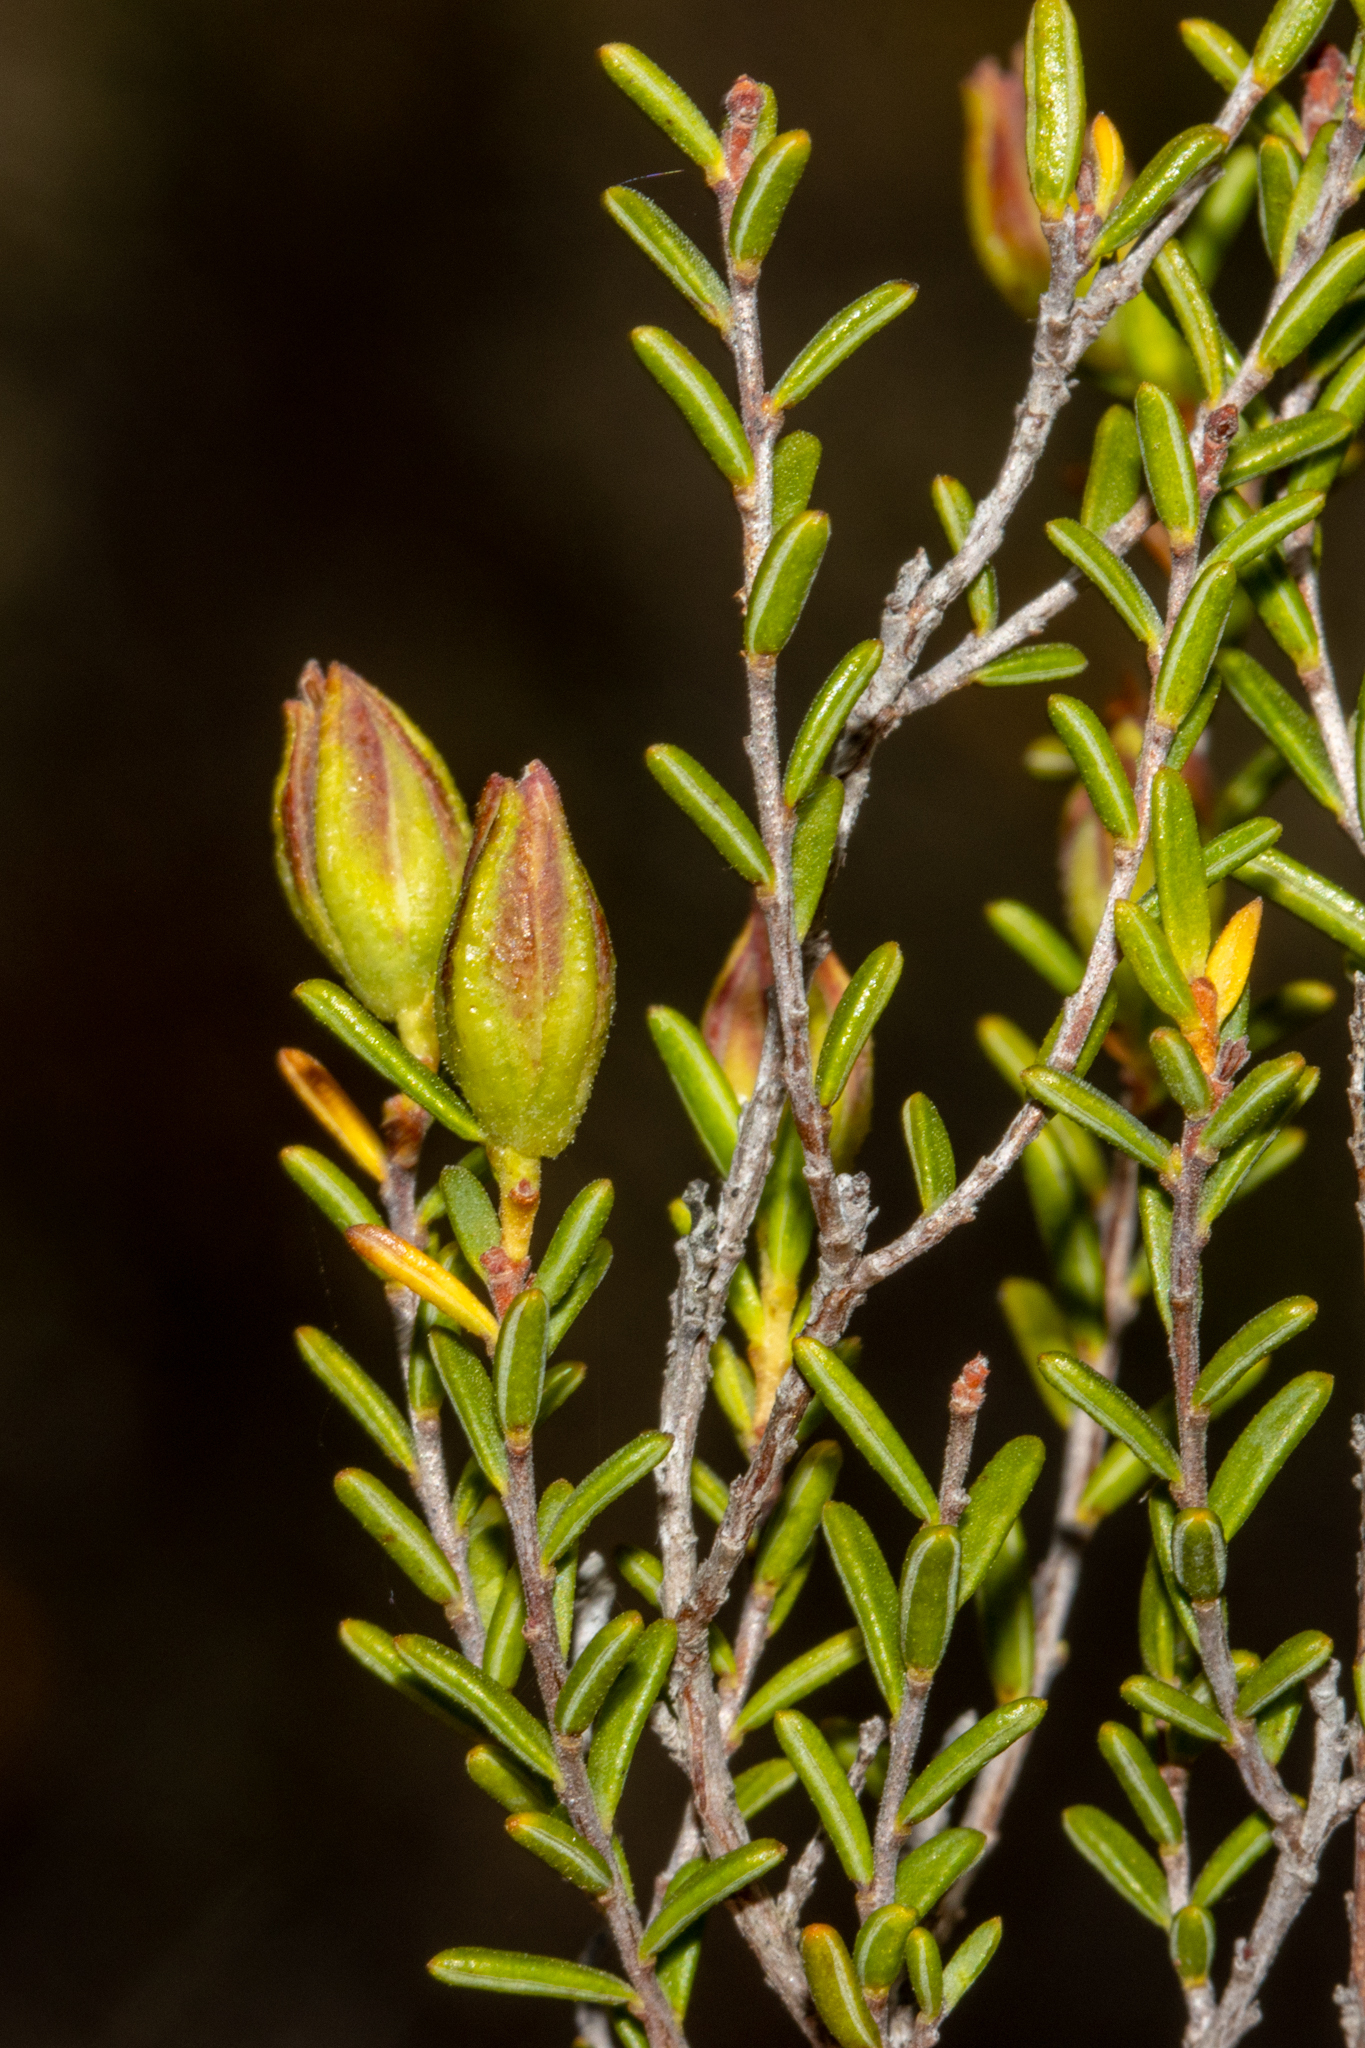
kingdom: Plantae
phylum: Tracheophyta
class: Magnoliopsida
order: Dilleniales
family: Dilleniaceae
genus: Hibbertia
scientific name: Hibbertia devitata
